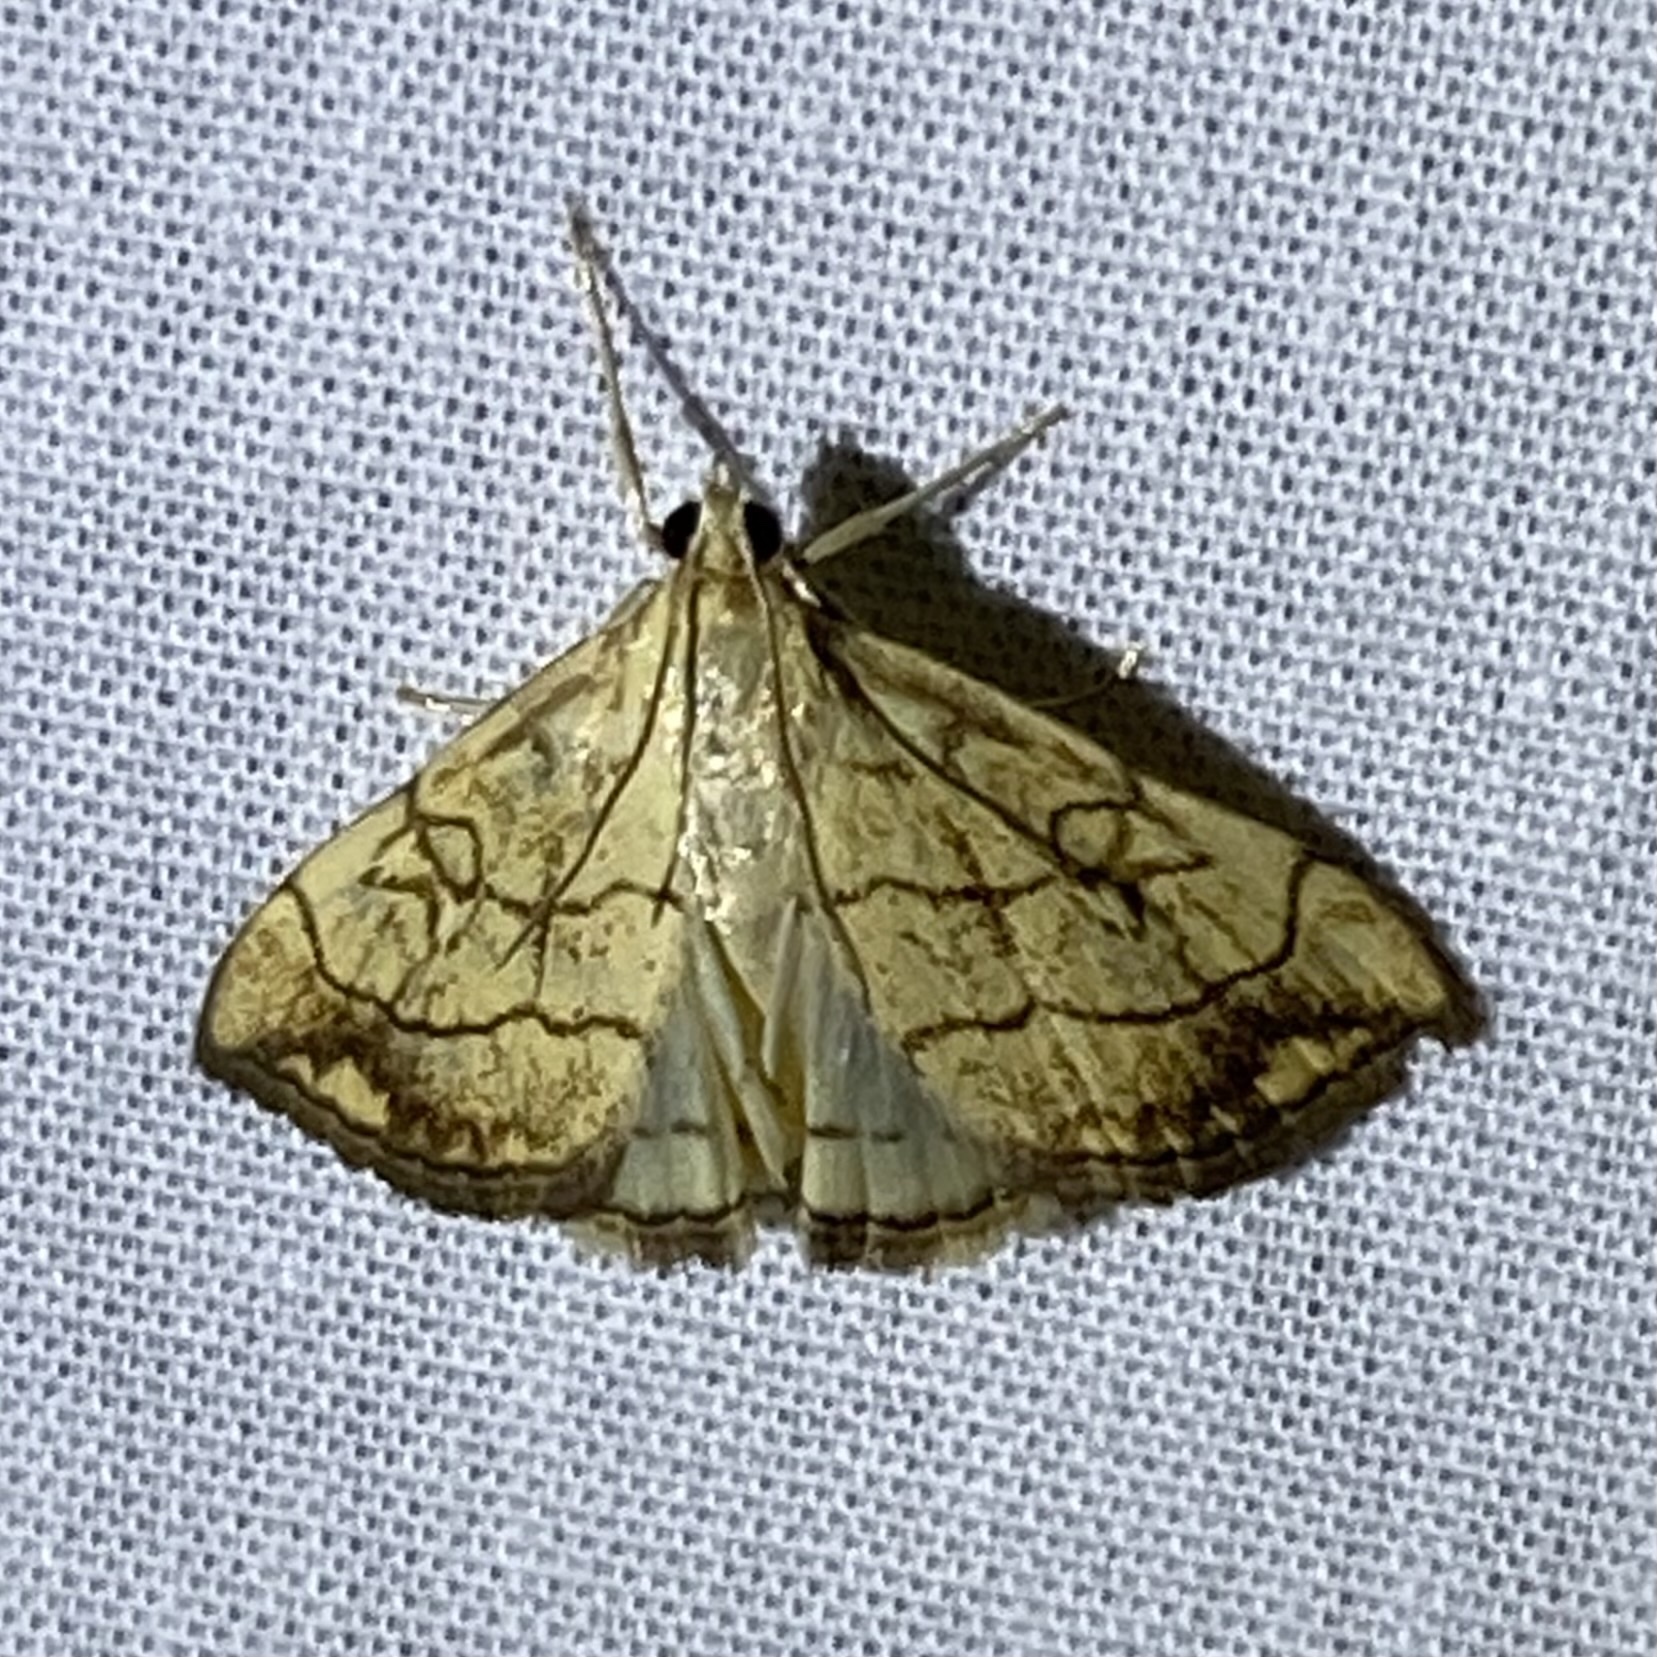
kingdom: Animalia
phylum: Arthropoda
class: Insecta
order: Lepidoptera
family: Crambidae
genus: Evergestis
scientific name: Evergestis pallidata
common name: Chequered pearl
